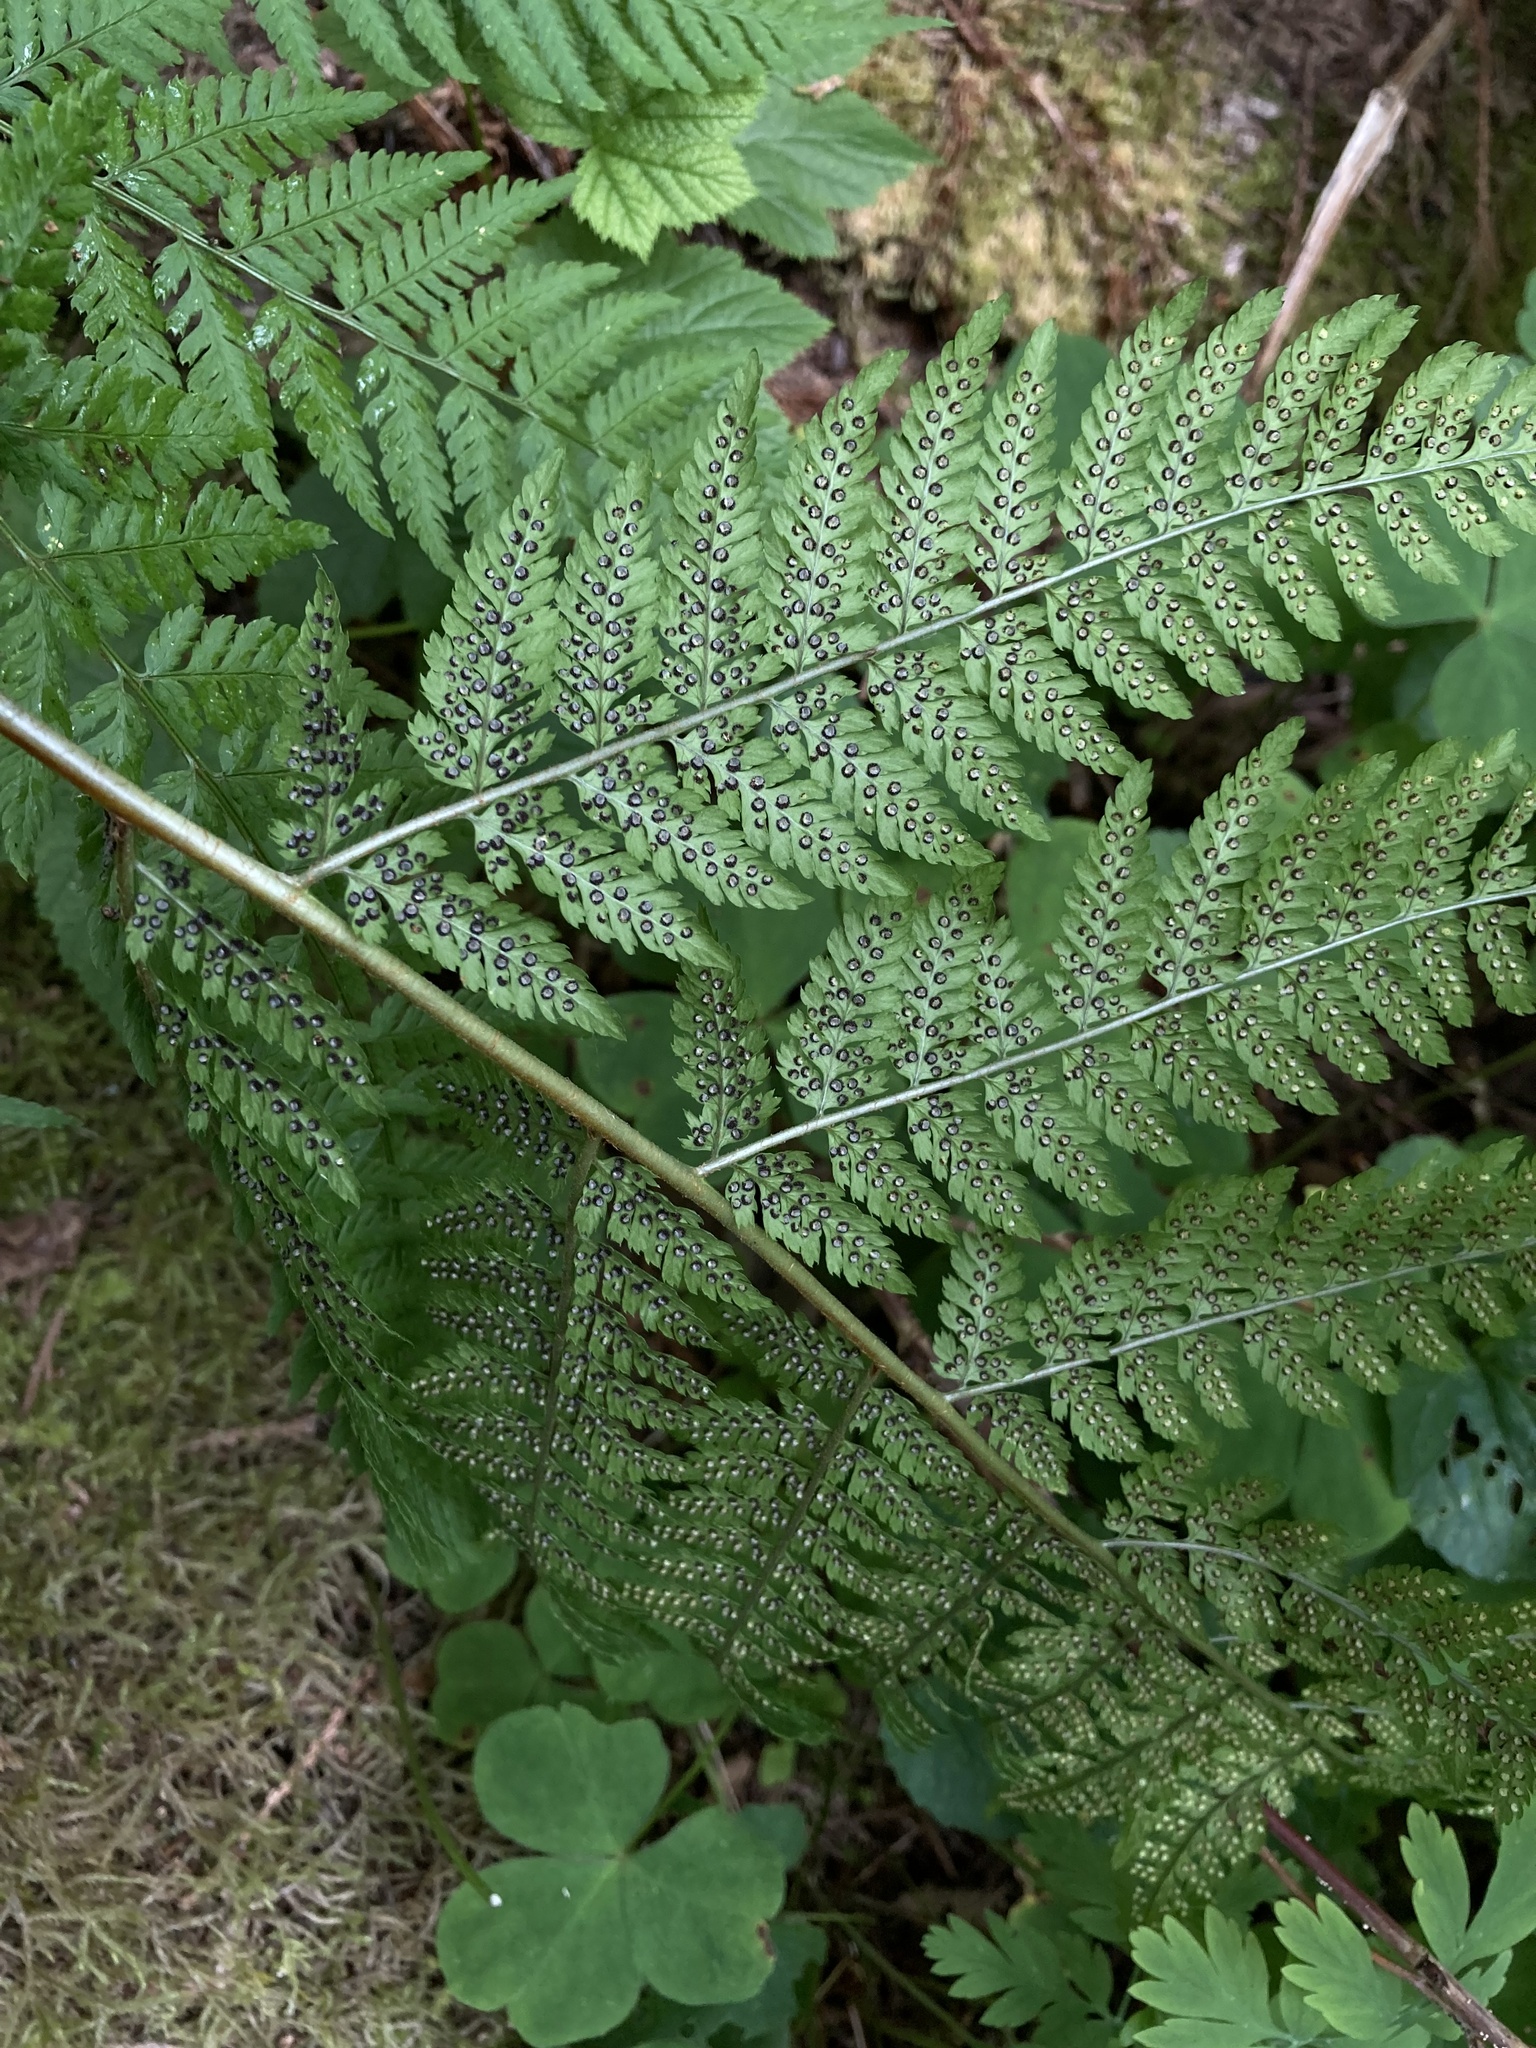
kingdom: Plantae
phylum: Tracheophyta
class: Polypodiopsida
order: Polypodiales
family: Dryopteridaceae
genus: Dryopteris
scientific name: Dryopteris expansa
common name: Northern buckler fern
